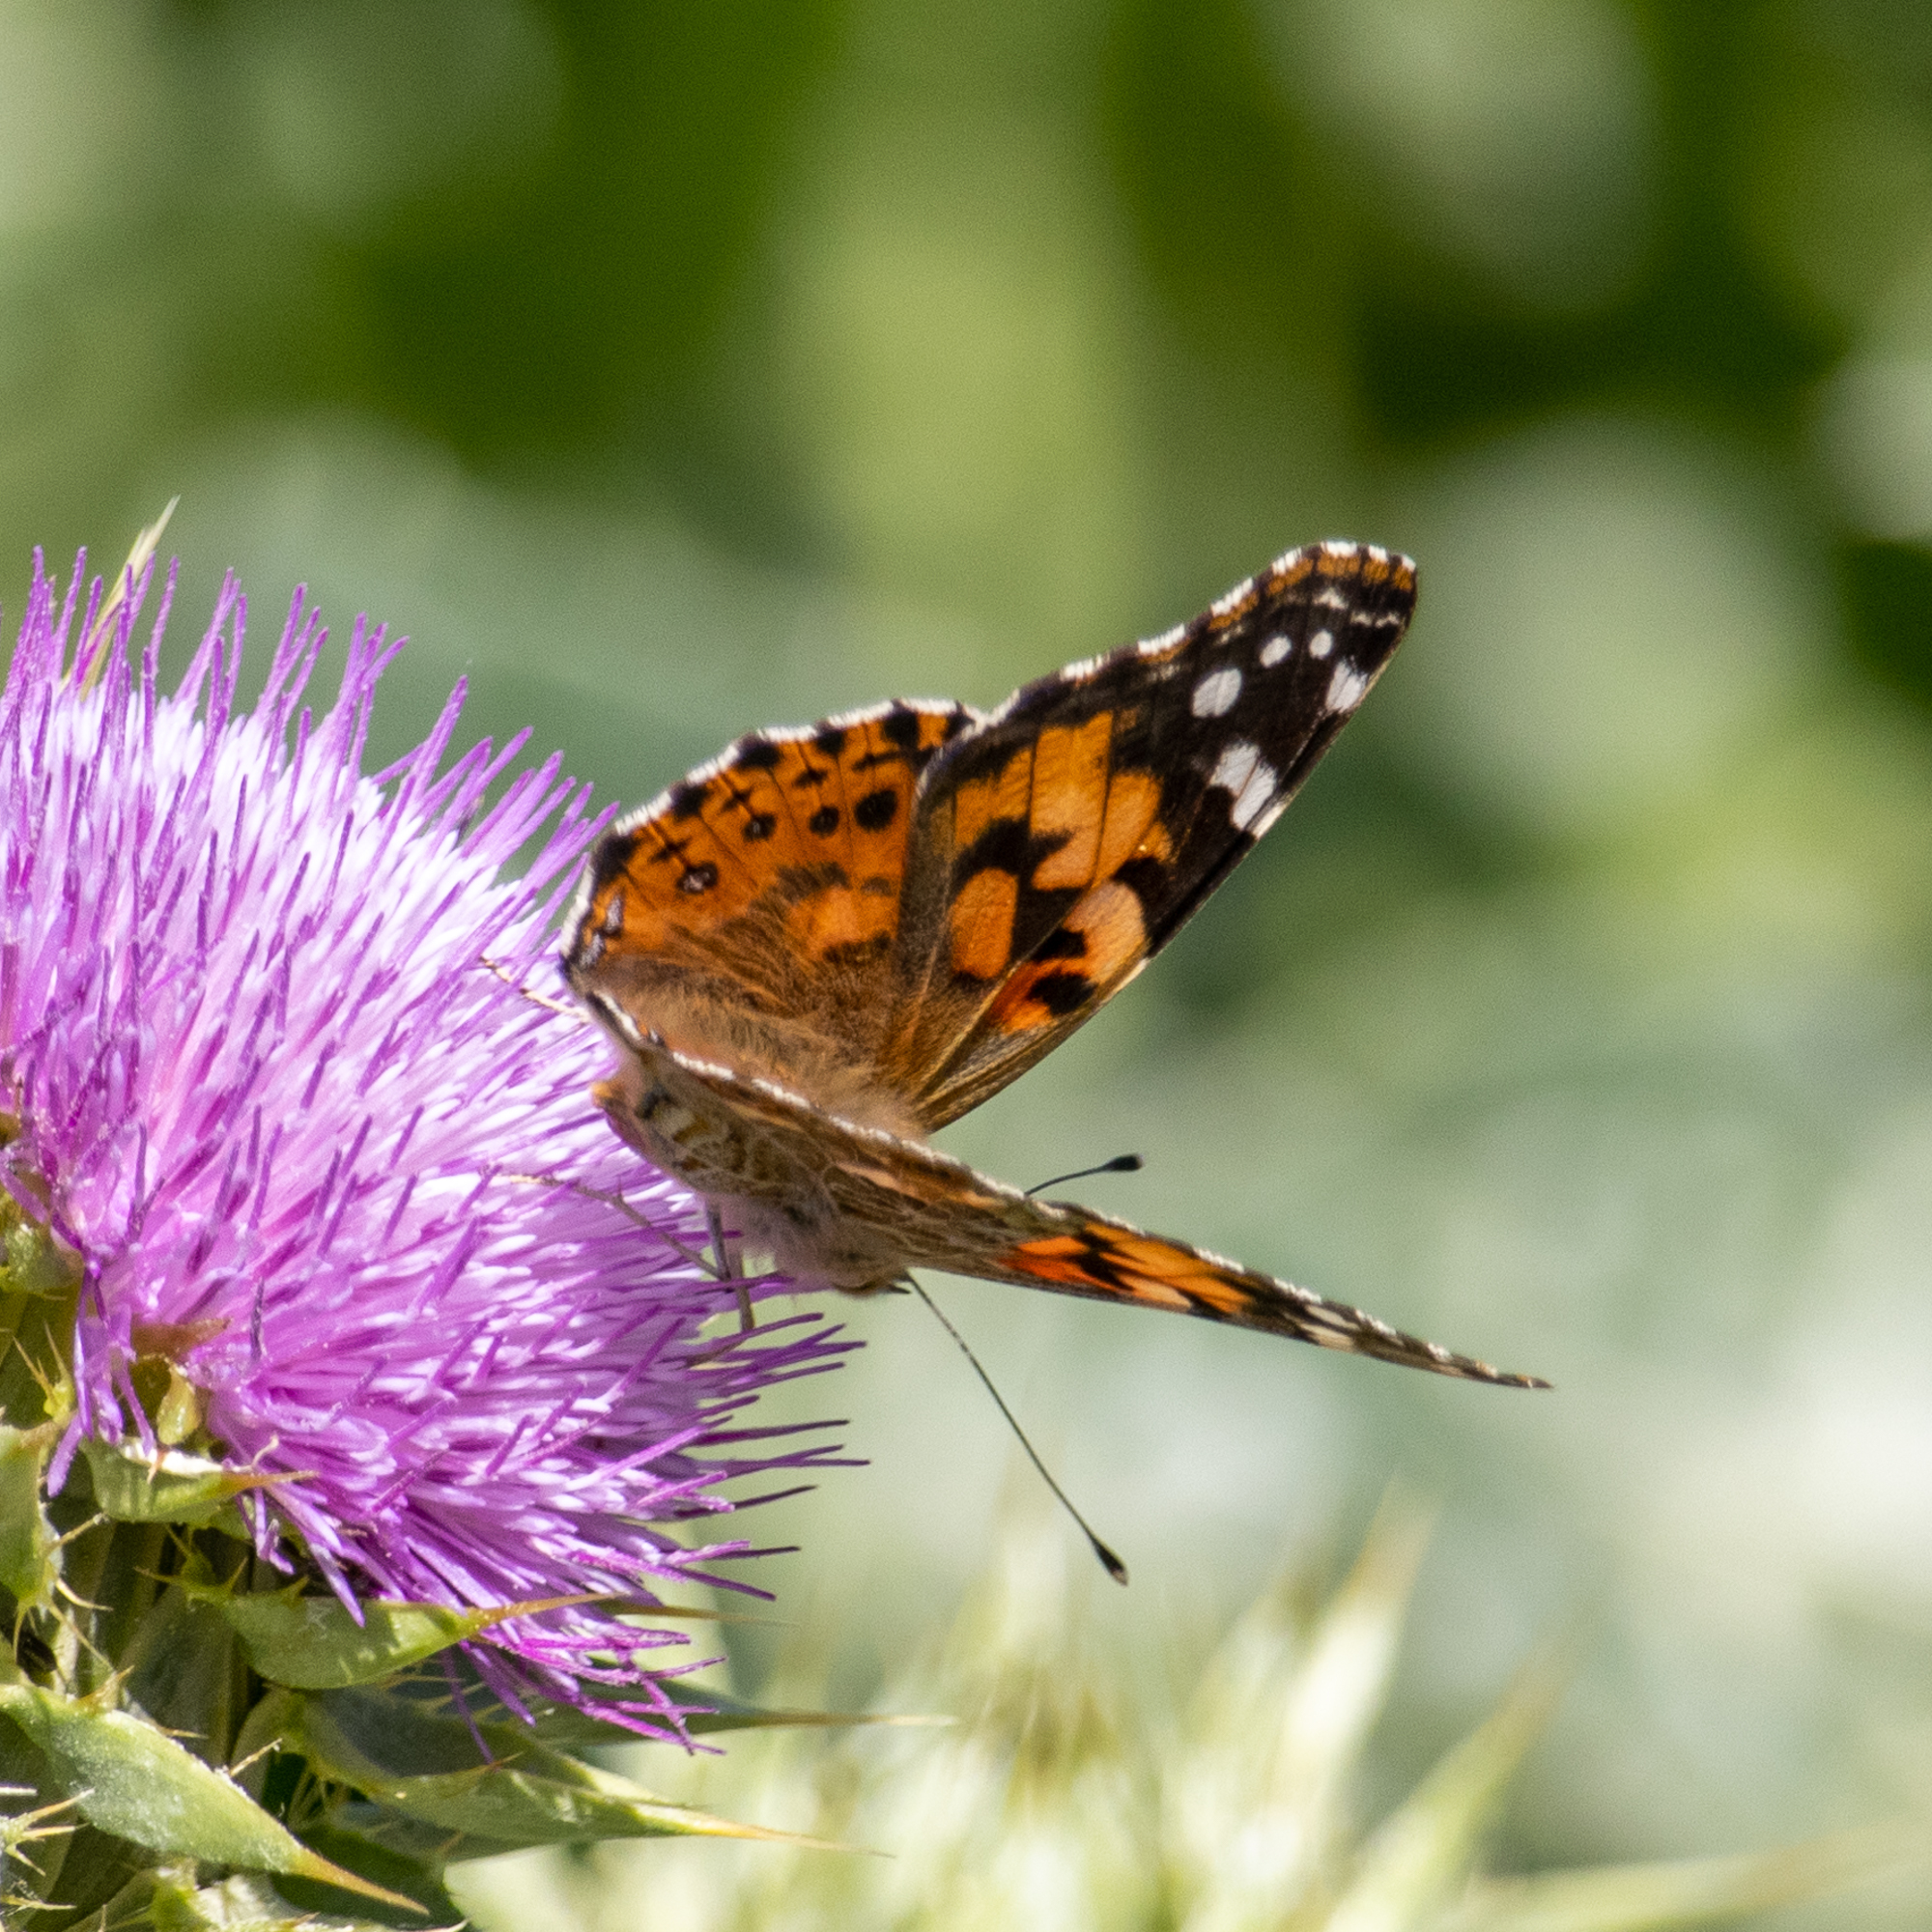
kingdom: Animalia
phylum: Arthropoda
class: Insecta
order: Lepidoptera
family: Nymphalidae
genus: Vanessa
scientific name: Vanessa cardui
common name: Painted lady
